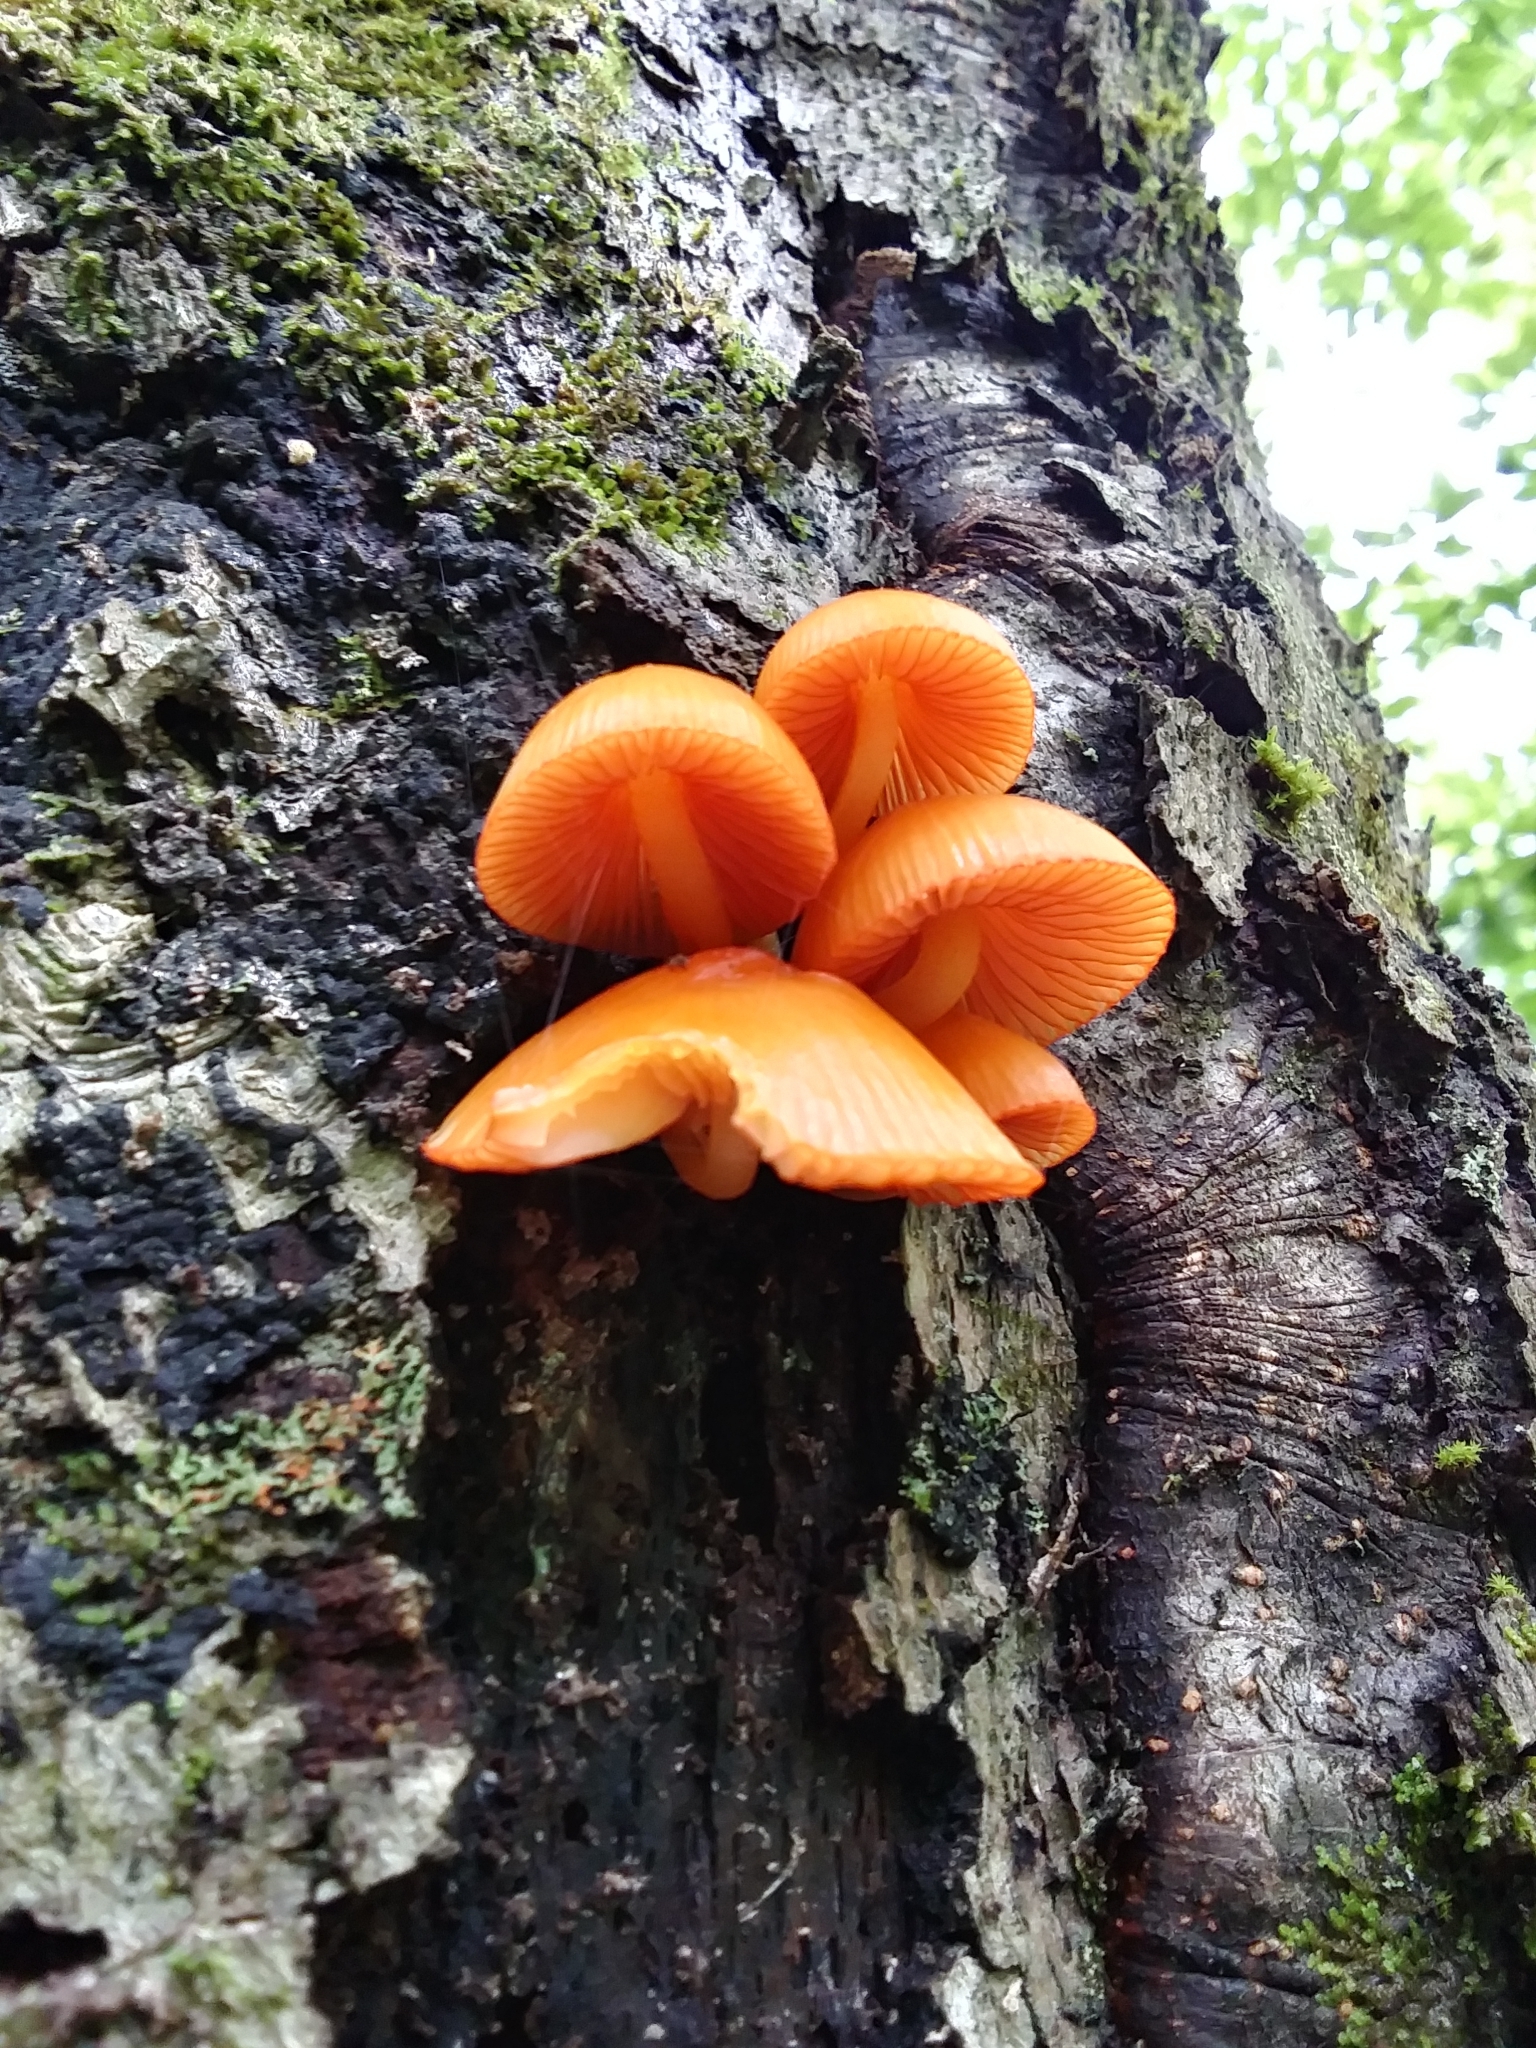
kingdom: Fungi
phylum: Basidiomycota
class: Agaricomycetes
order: Agaricales
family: Mycenaceae
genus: Mycena
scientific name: Mycena leaiana
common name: Orange mycena
